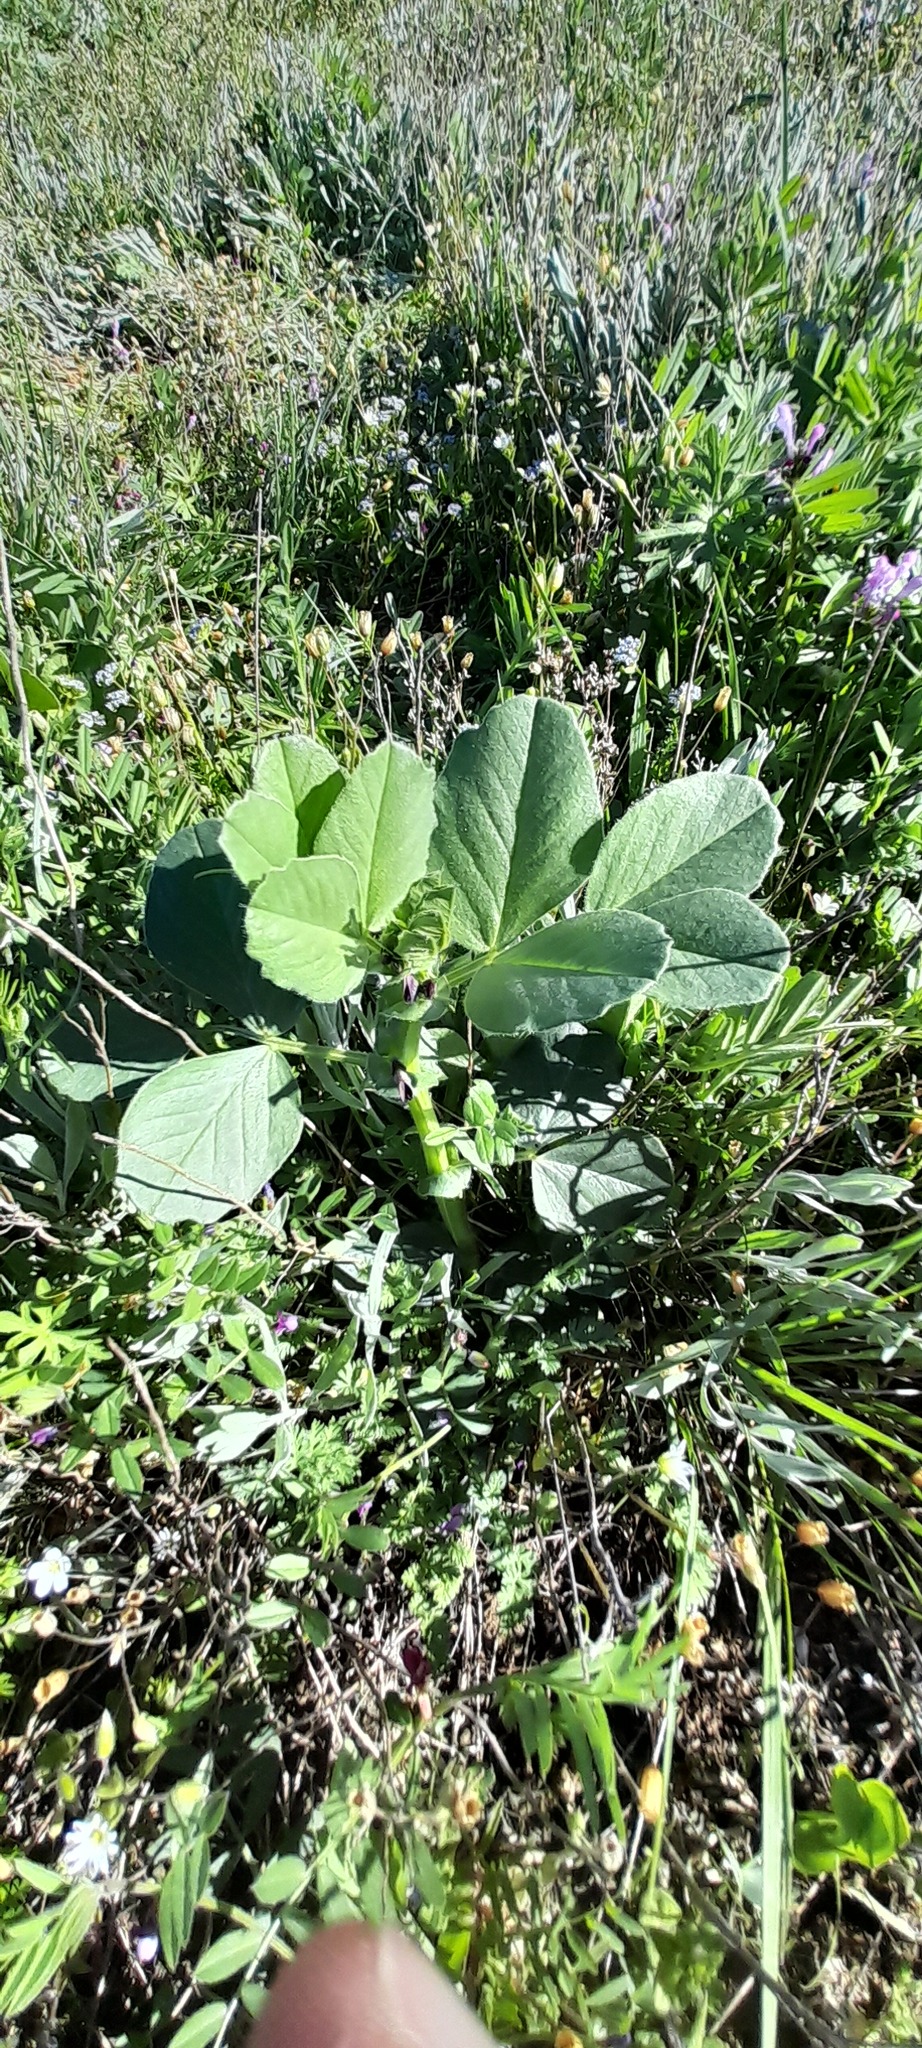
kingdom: Plantae
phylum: Tracheophyta
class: Magnoliopsida
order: Fabales
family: Fabaceae
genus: Vicia
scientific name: Vicia narbonensis
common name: Narbonne vetch
